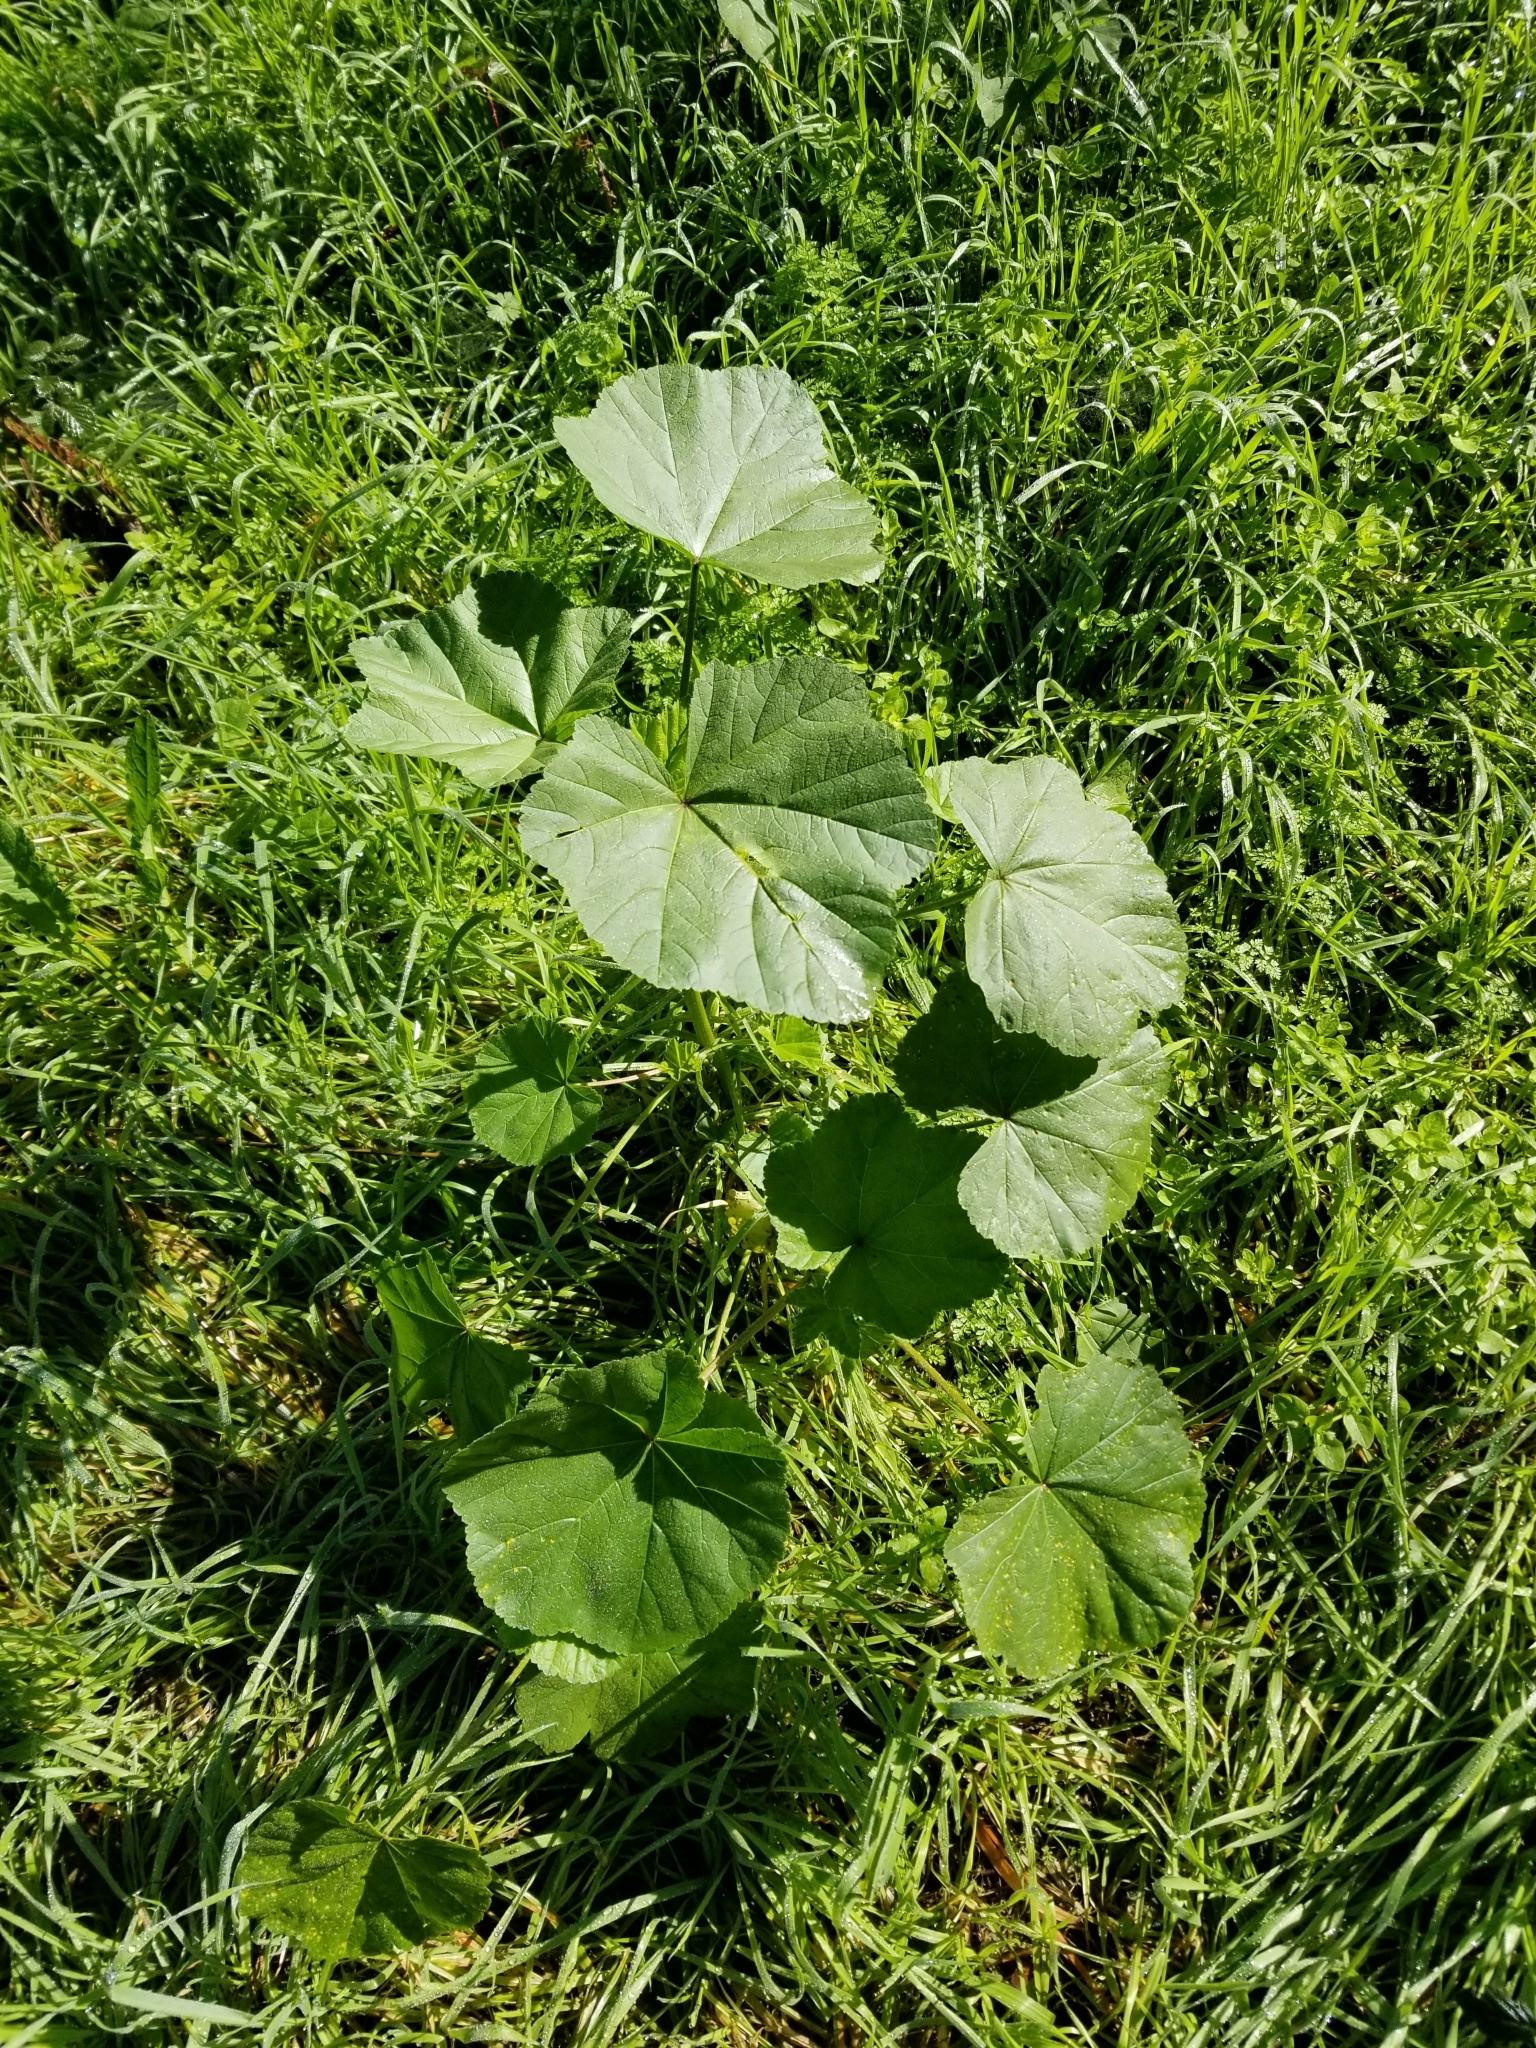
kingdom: Plantae
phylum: Tracheophyta
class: Magnoliopsida
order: Malvales
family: Malvaceae
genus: Malva
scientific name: Malva
